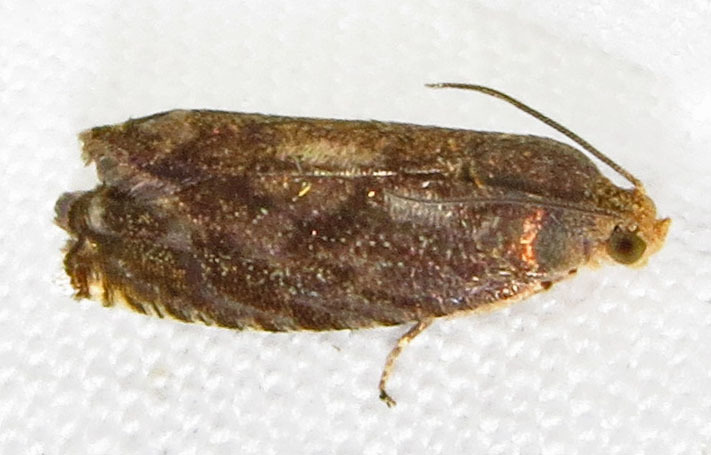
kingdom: Animalia
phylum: Arthropoda
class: Insecta
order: Lepidoptera
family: Tortricidae
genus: Cydia
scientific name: Cydia caryana
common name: Hickory shuckworm moth
